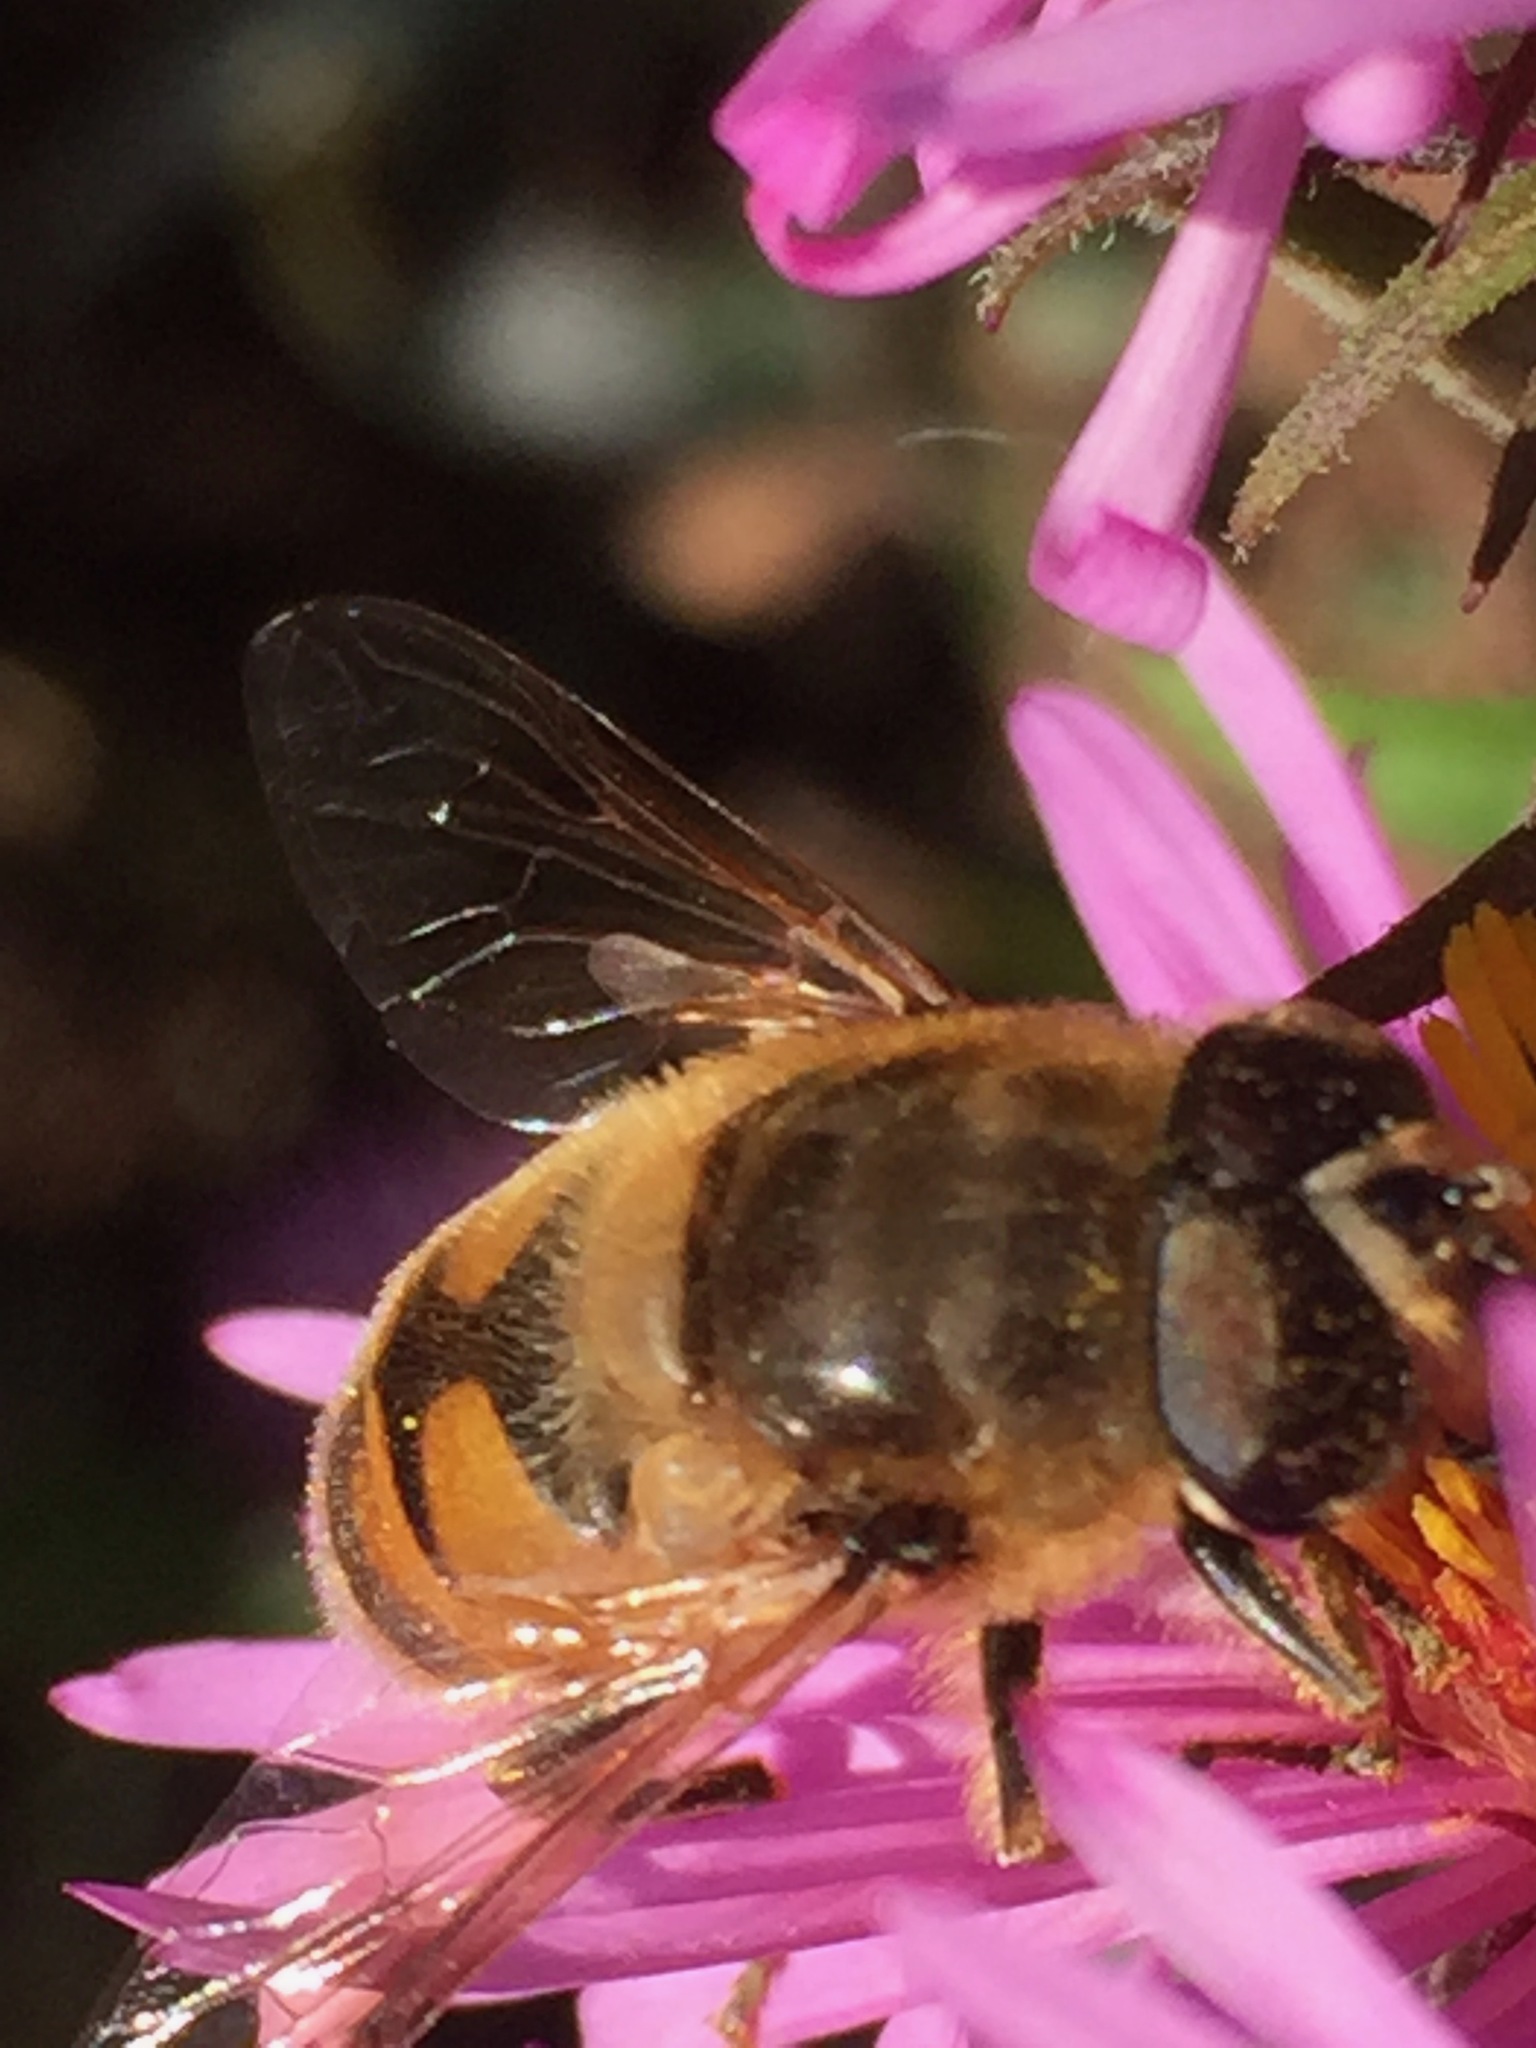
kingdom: Animalia
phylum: Arthropoda
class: Insecta
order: Diptera
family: Syrphidae
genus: Eristalis
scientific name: Eristalis tenax
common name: Drone fly
